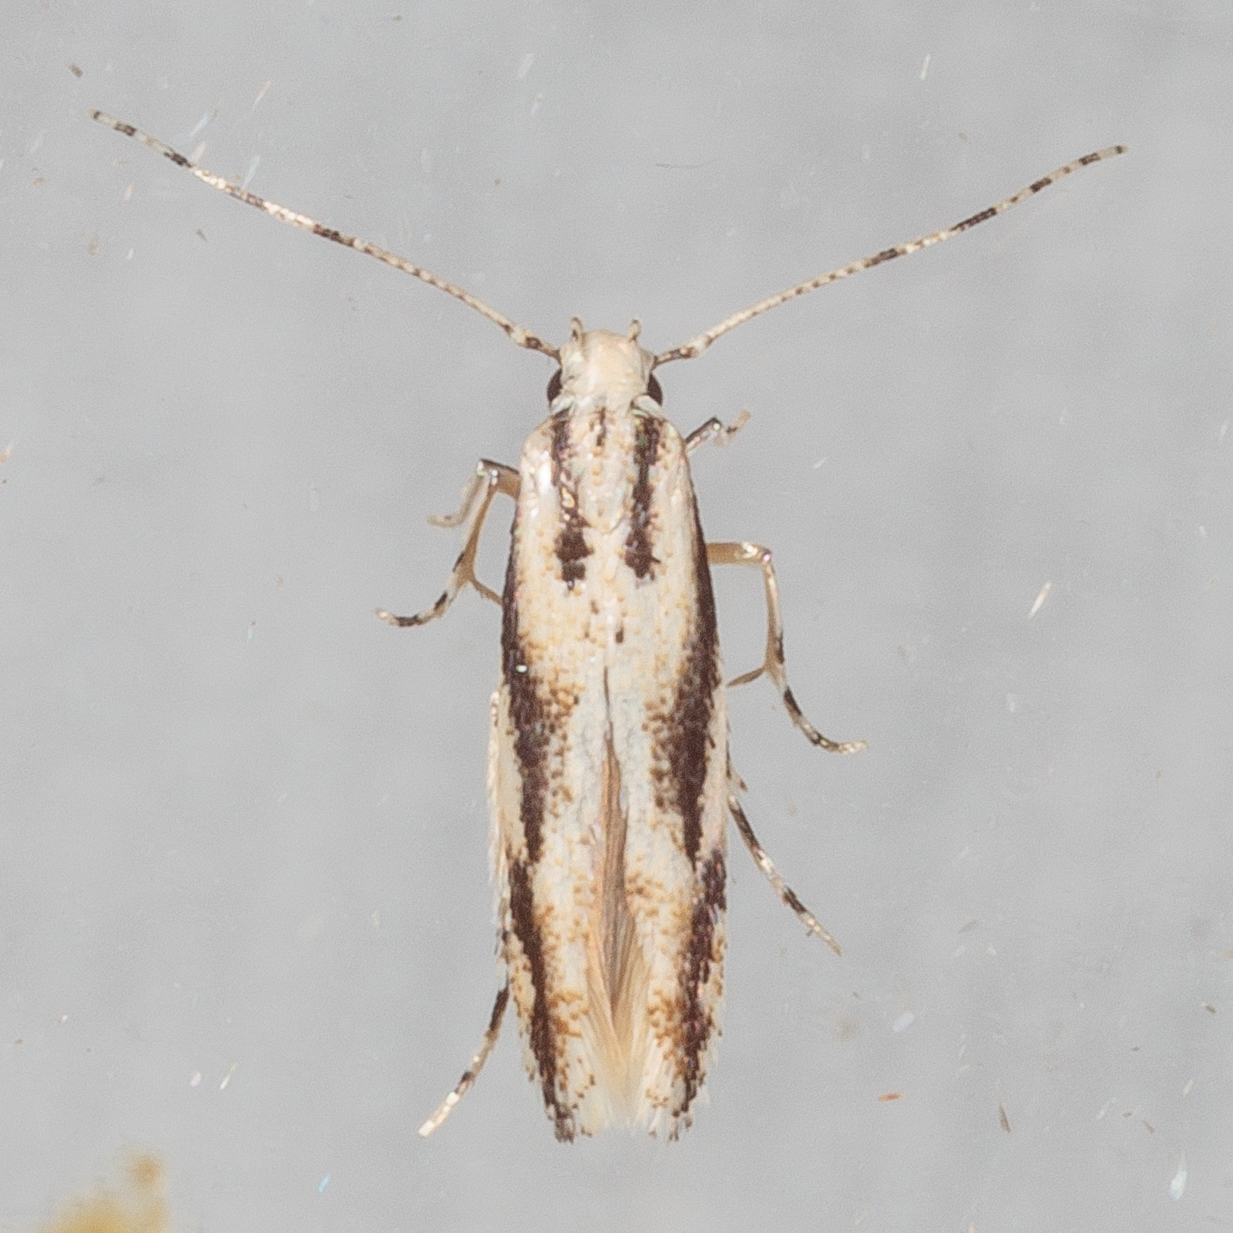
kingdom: Animalia
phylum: Arthropoda
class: Insecta
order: Lepidoptera
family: Cosmopterigidae
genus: Melanocinclis
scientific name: Melanocinclis lineigera
